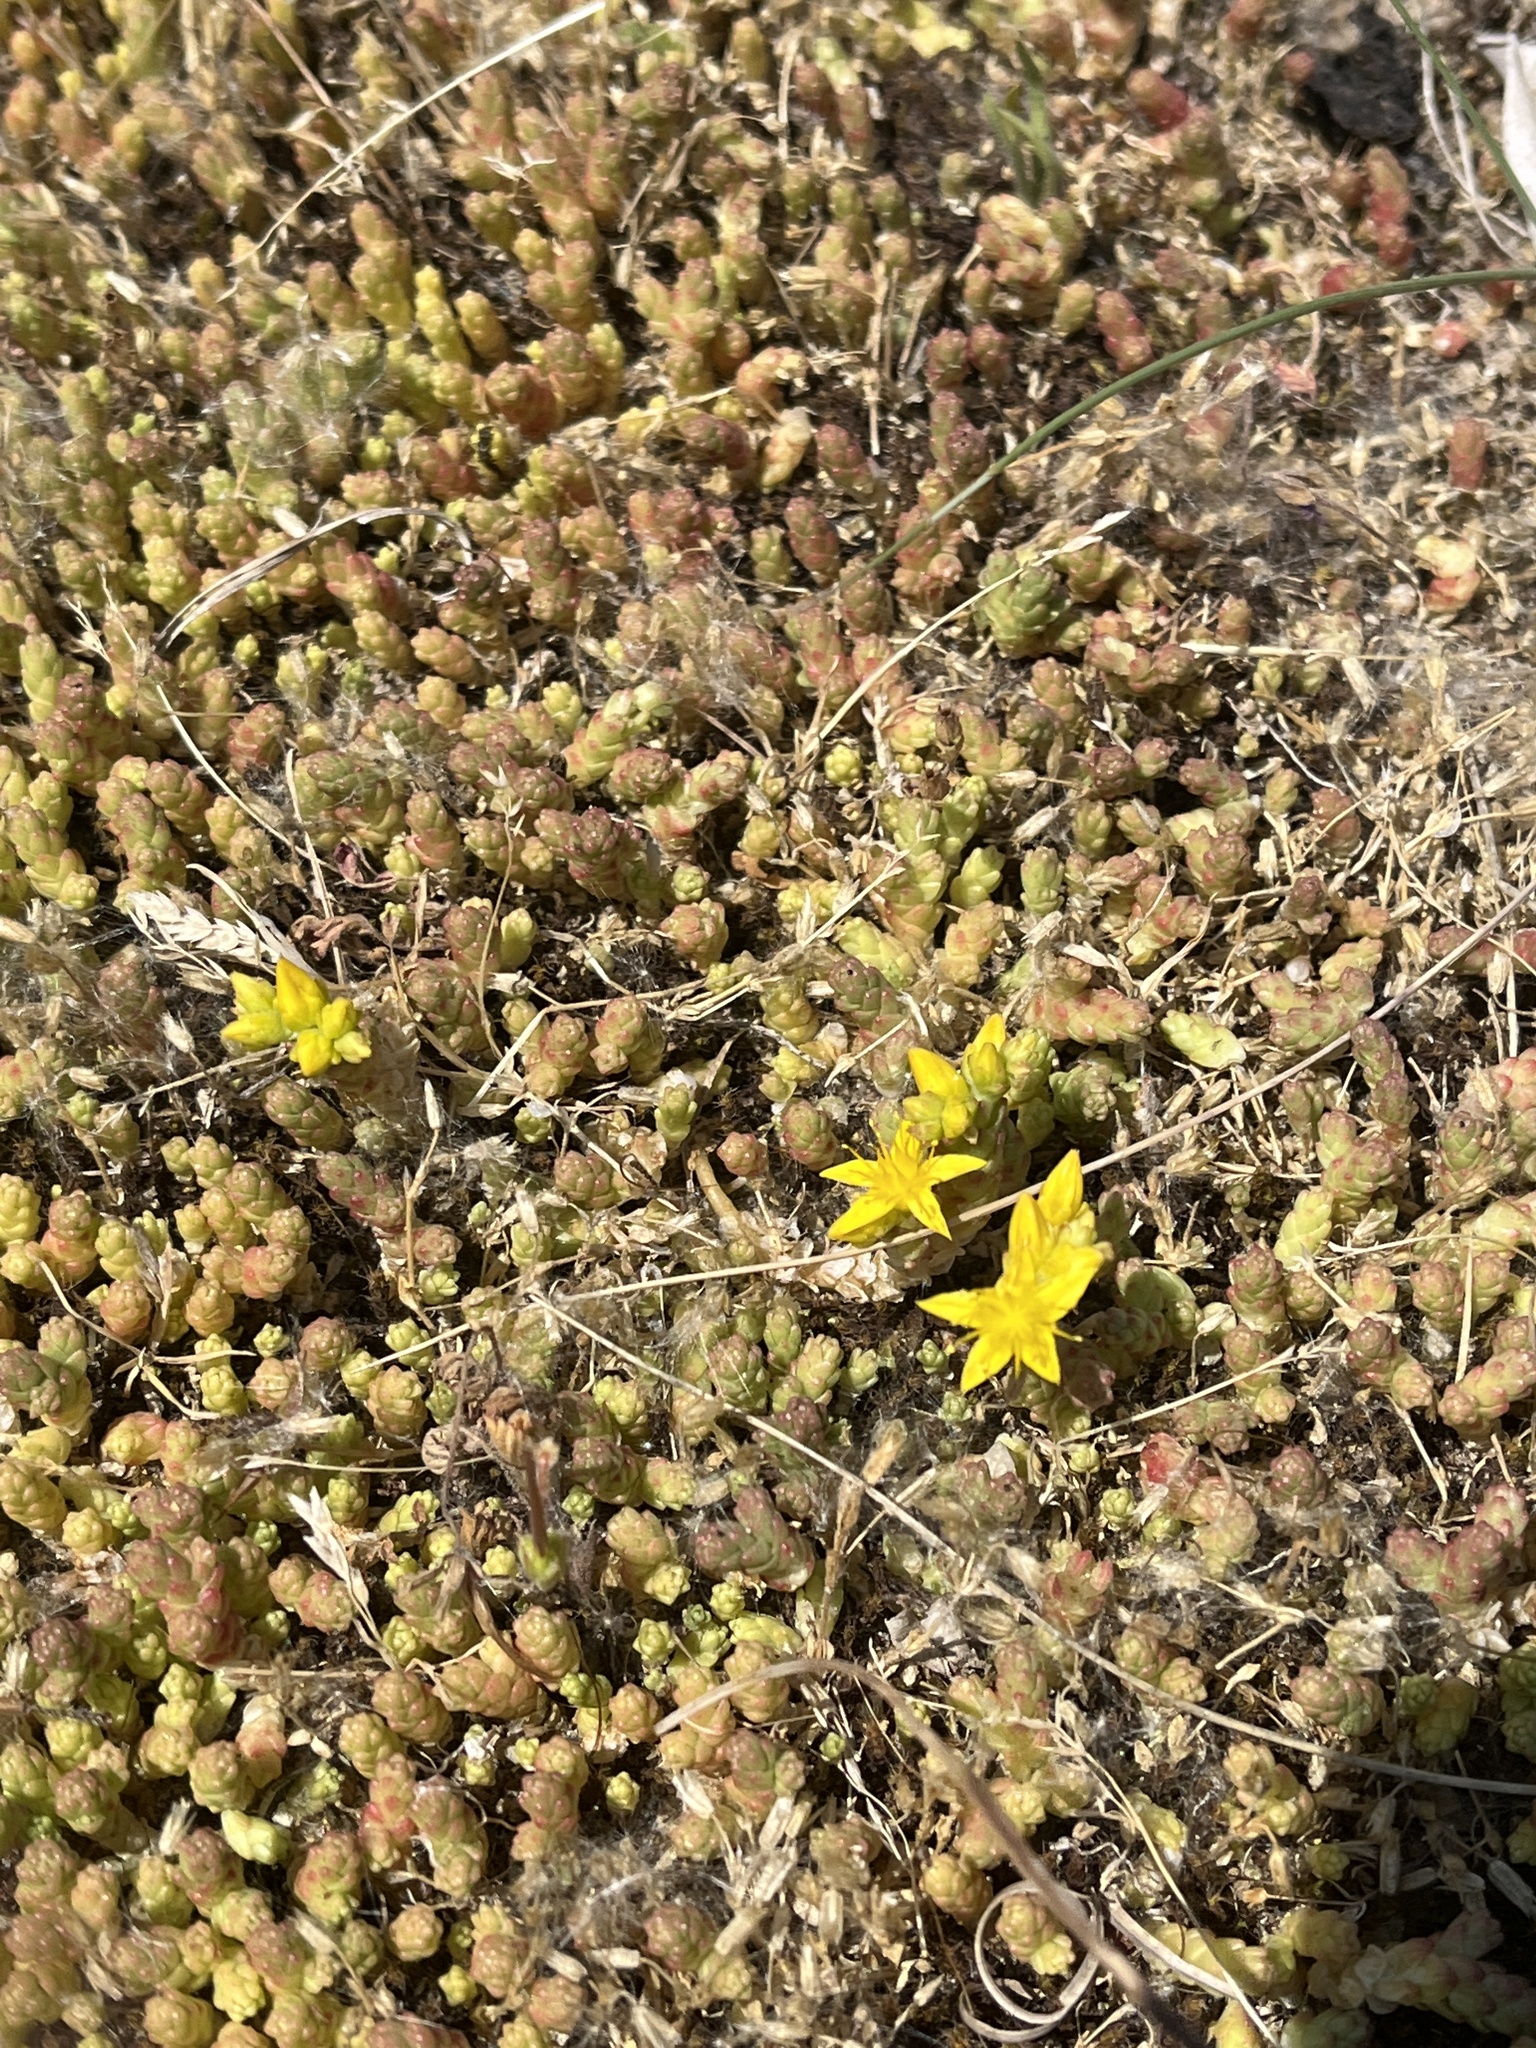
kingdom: Plantae
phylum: Tracheophyta
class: Magnoliopsida
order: Saxifragales
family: Crassulaceae
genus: Sedum
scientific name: Sedum acre
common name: Biting stonecrop
